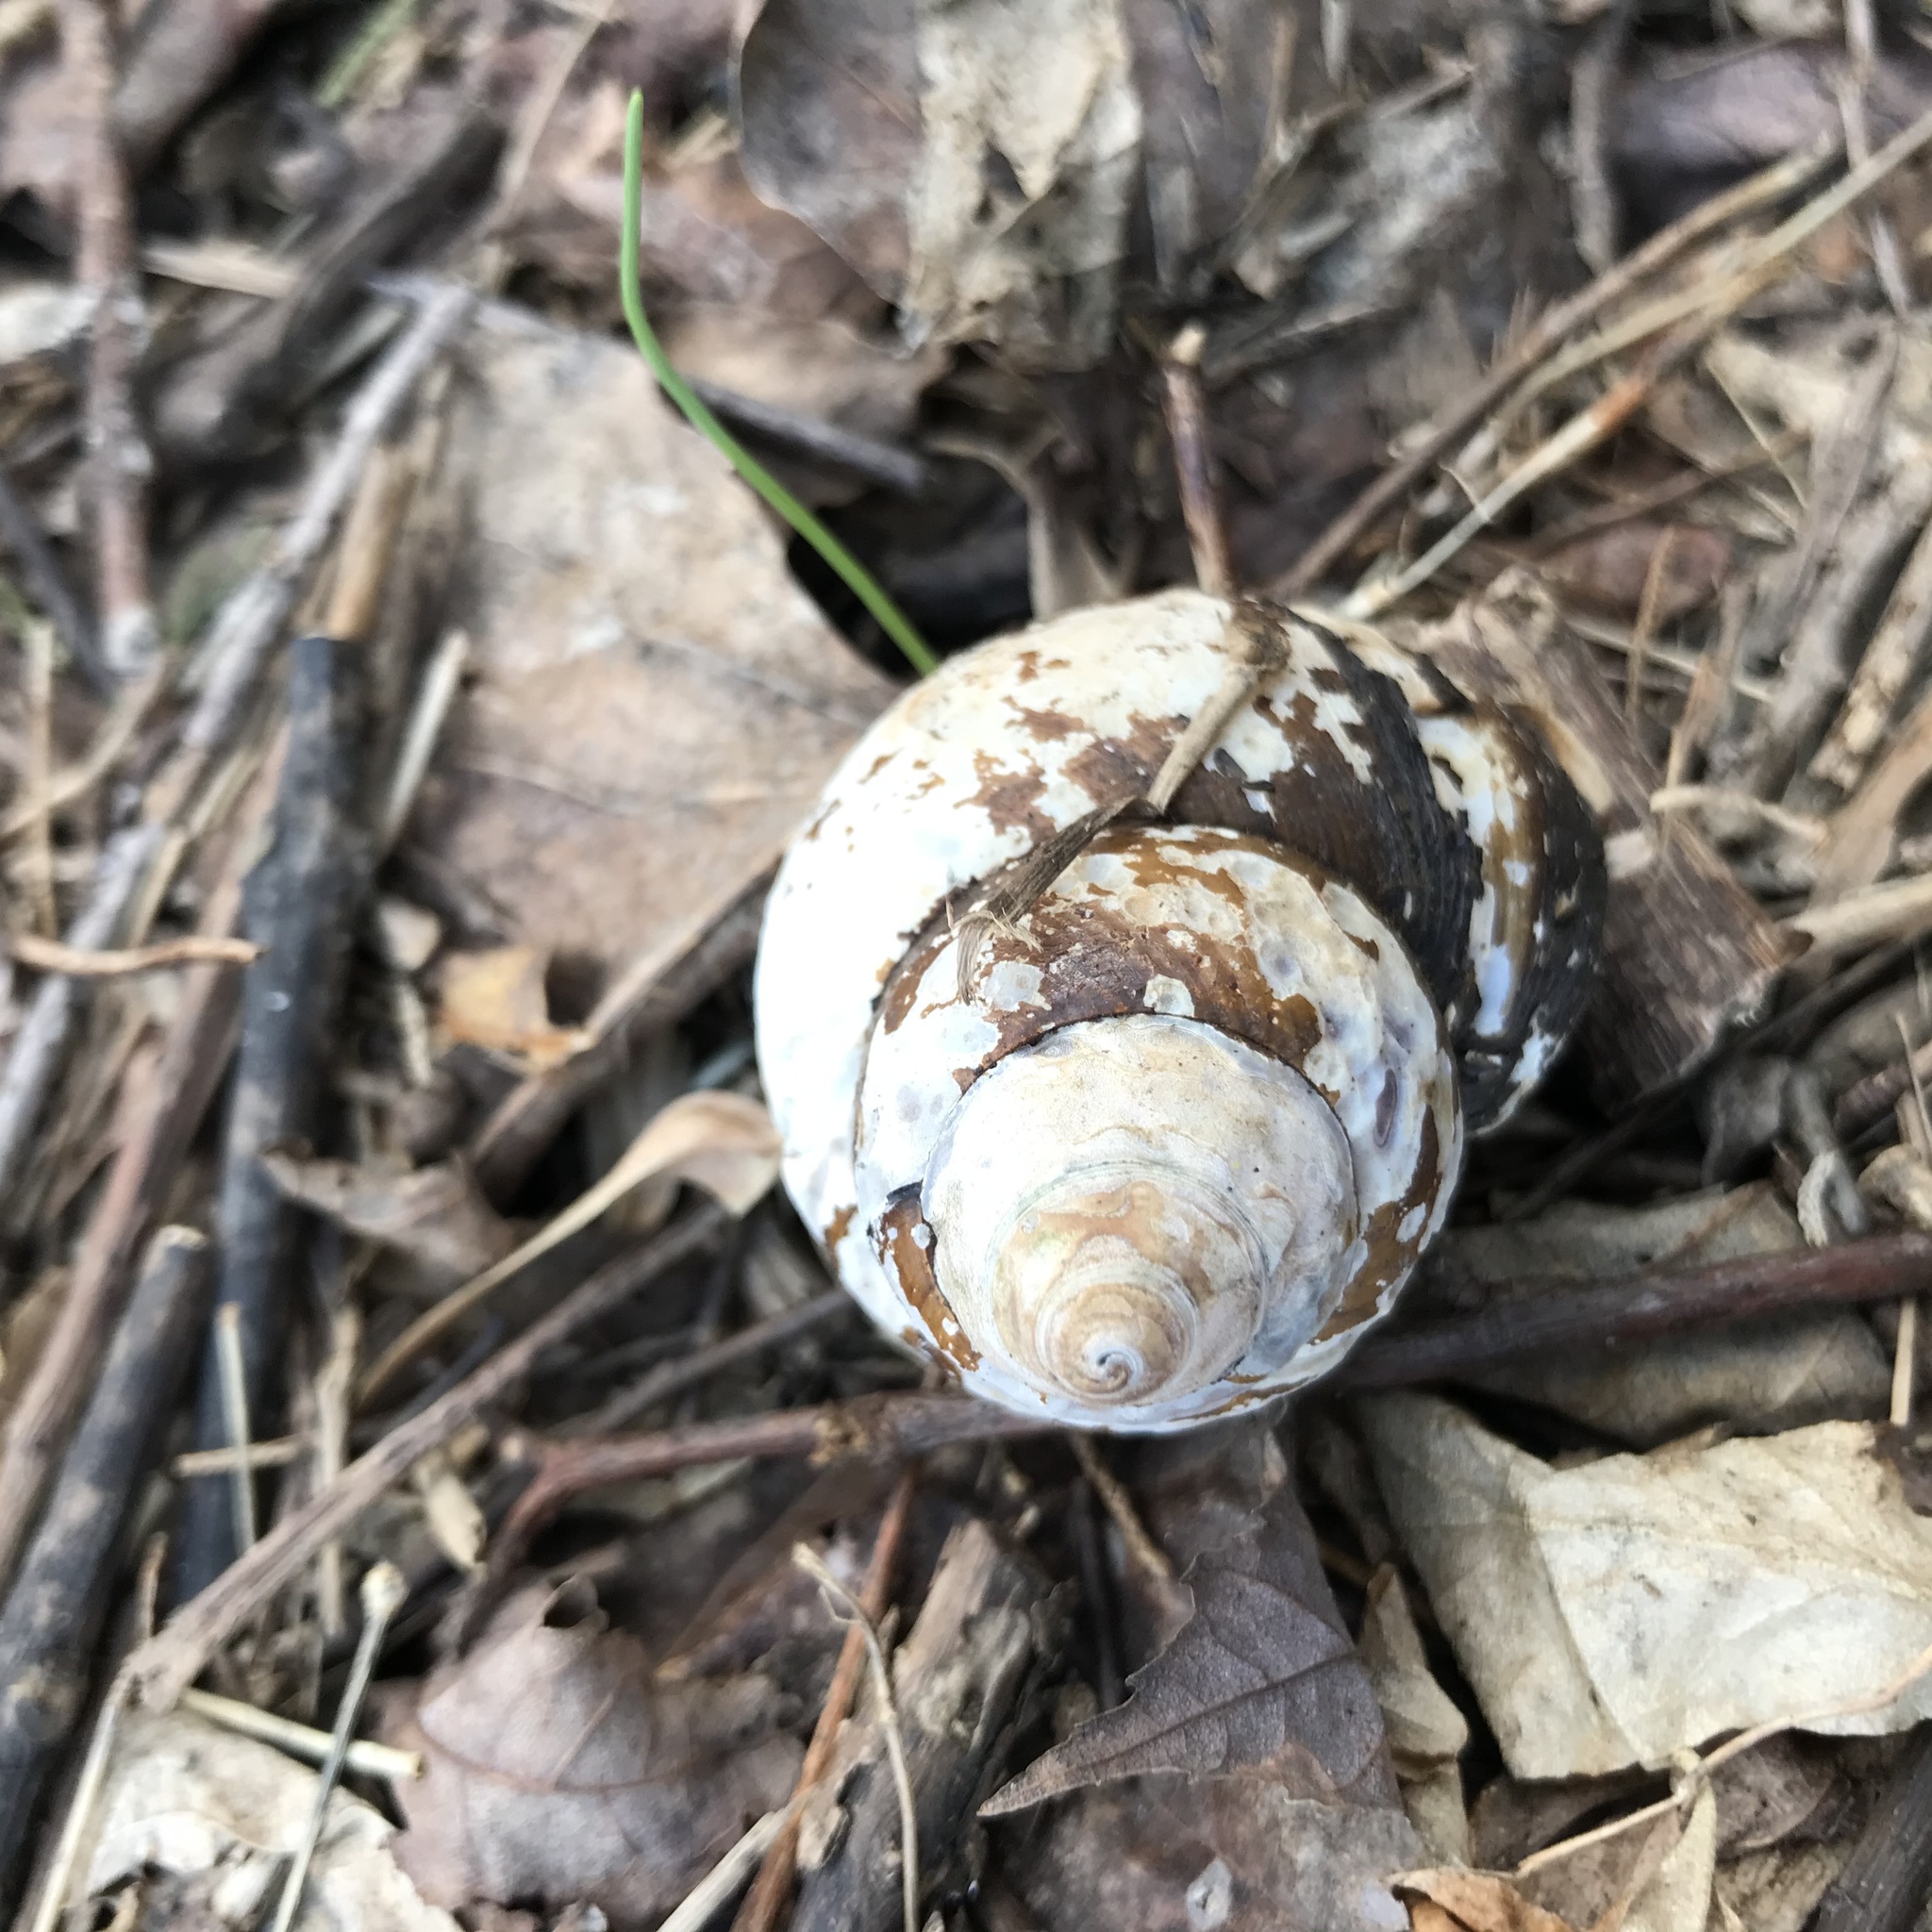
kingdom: Animalia
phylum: Mollusca
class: Gastropoda
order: Architaenioglossa
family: Viviparidae
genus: Cipangopaludina
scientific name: Cipangopaludina chinensis
